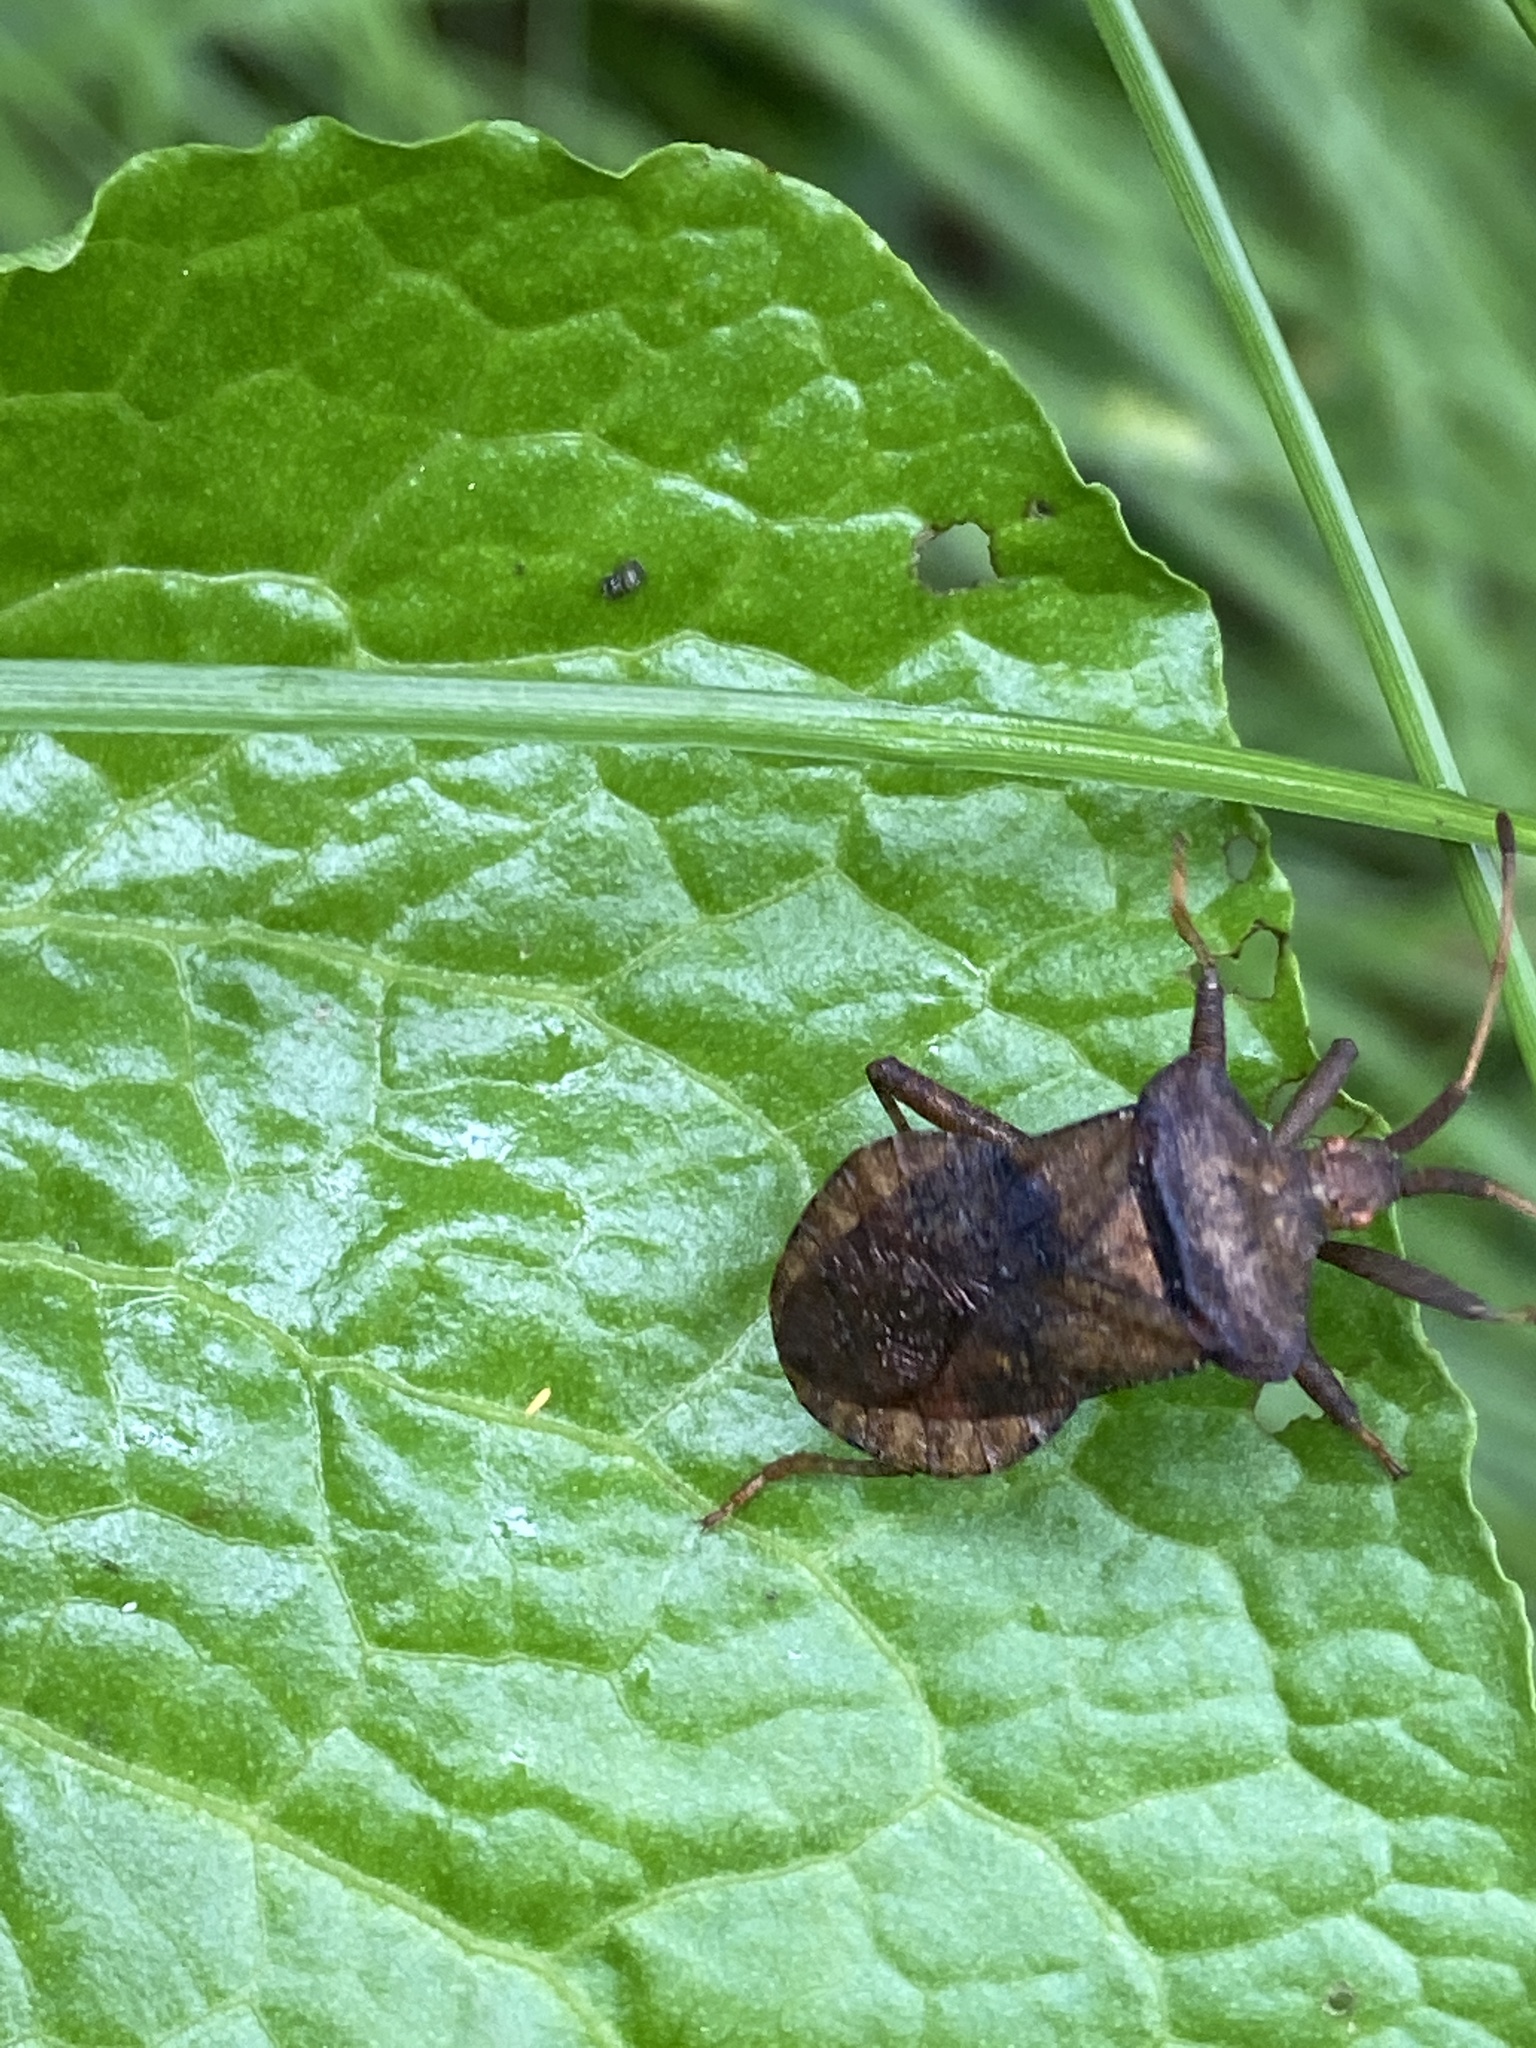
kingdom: Animalia
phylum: Arthropoda
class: Insecta
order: Hemiptera
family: Coreidae
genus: Coreus
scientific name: Coreus marginatus
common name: Dock bug
